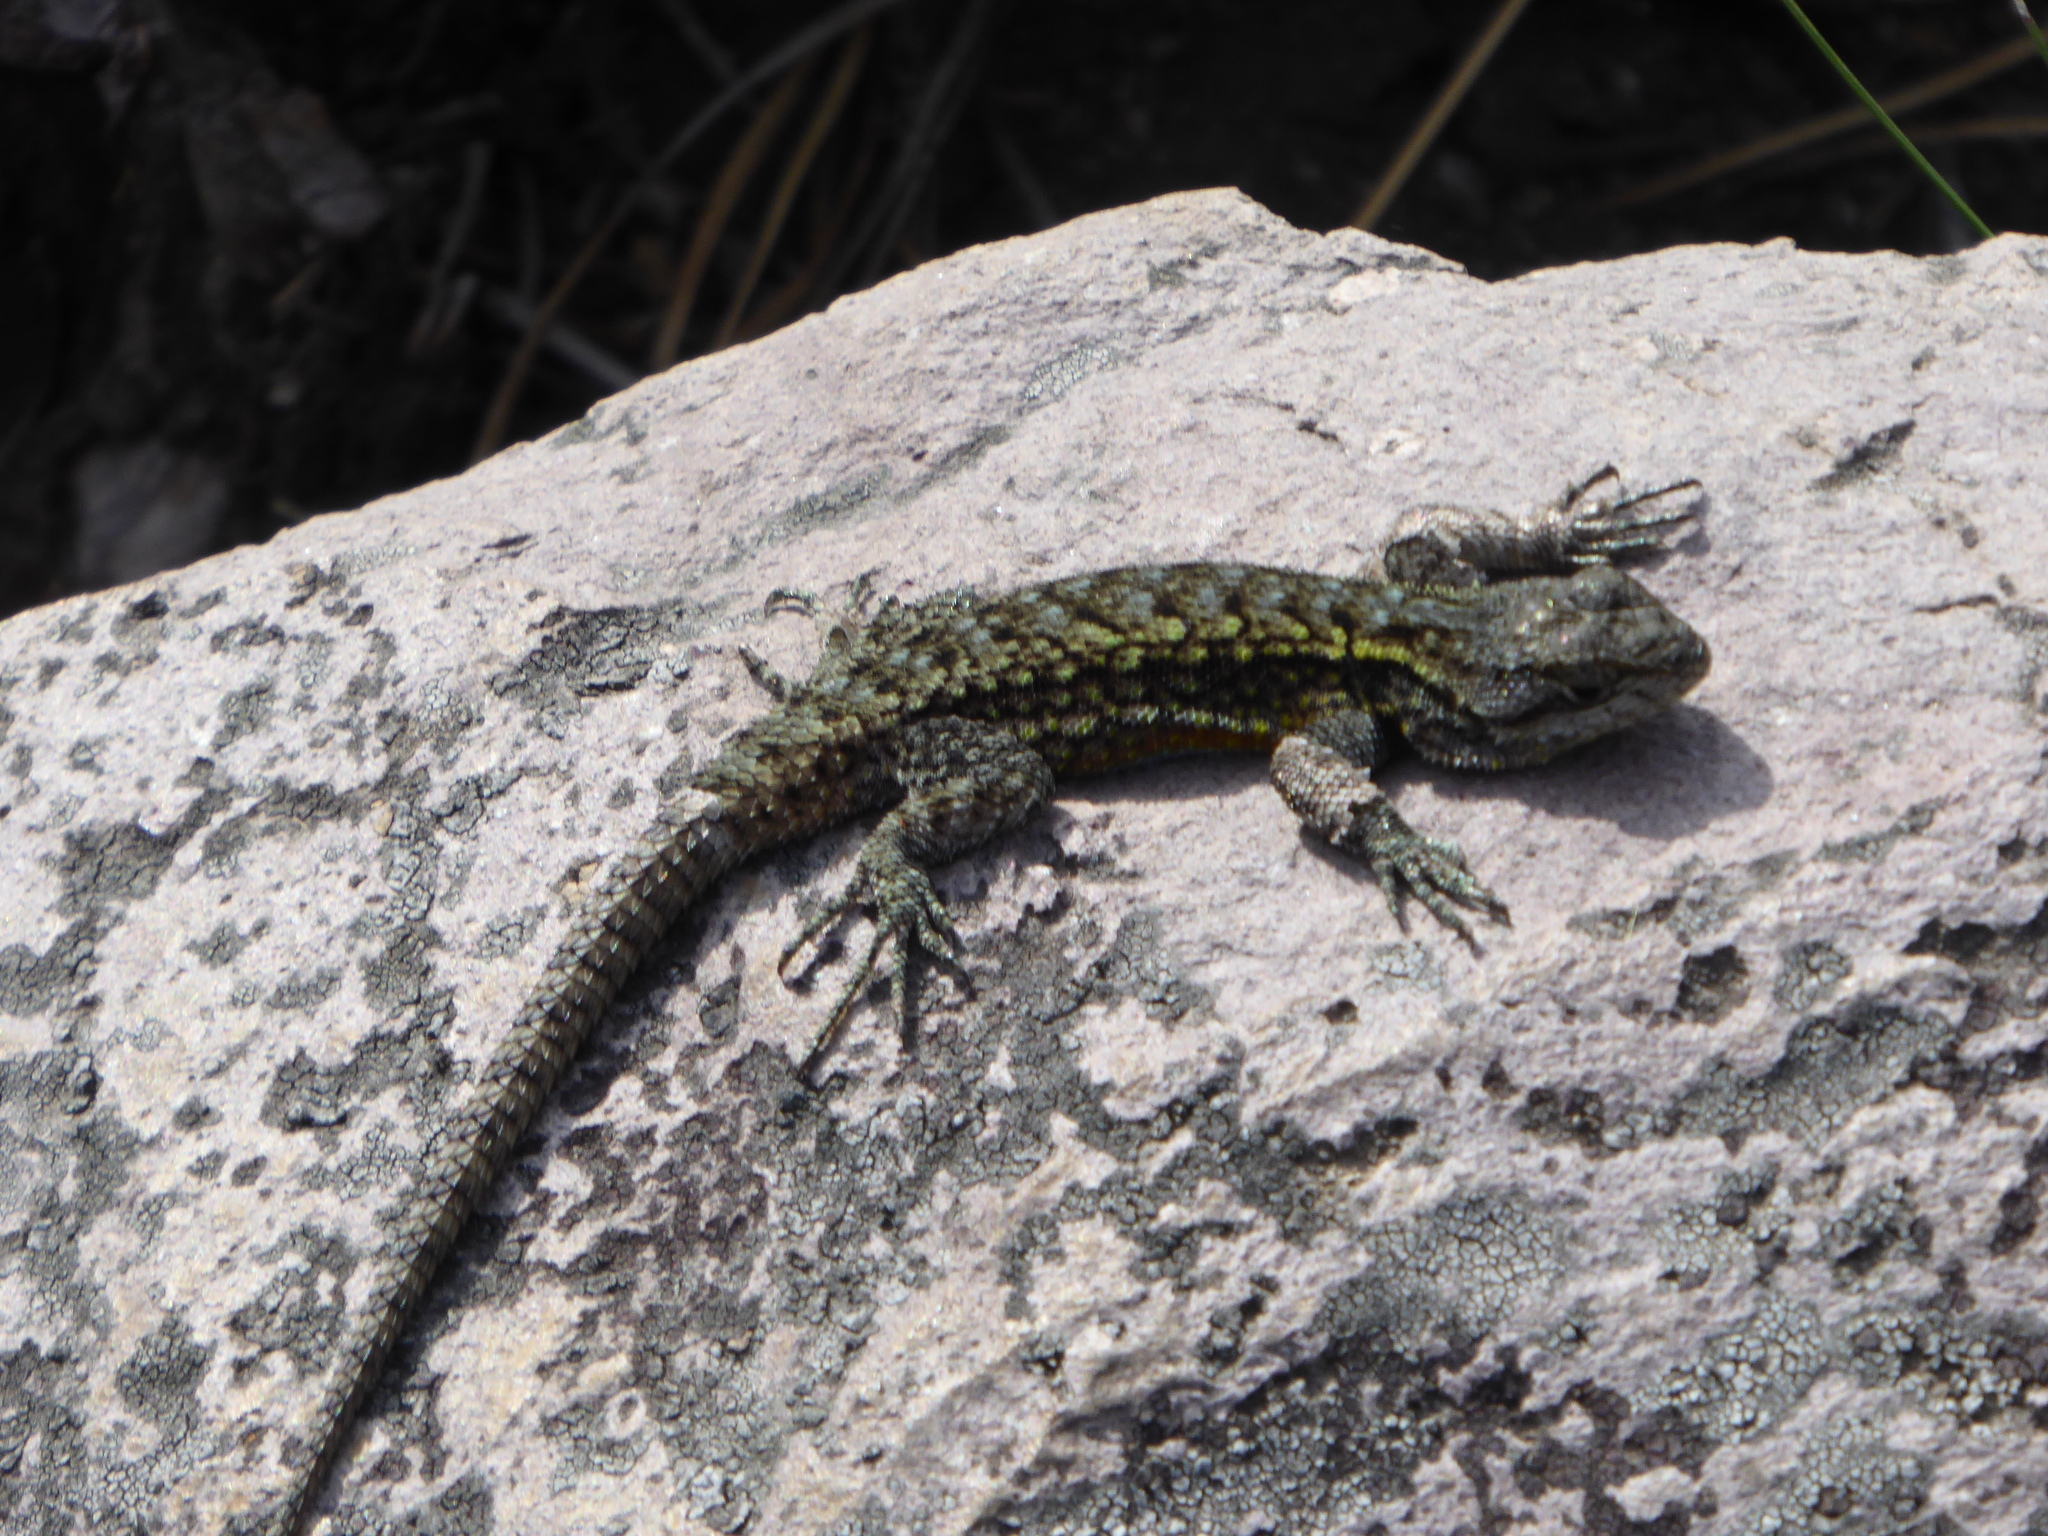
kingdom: Animalia
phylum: Chordata
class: Squamata
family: Phrynosomatidae
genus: Sceloporus
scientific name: Sceloporus grammicus
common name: Mesquite lizard
